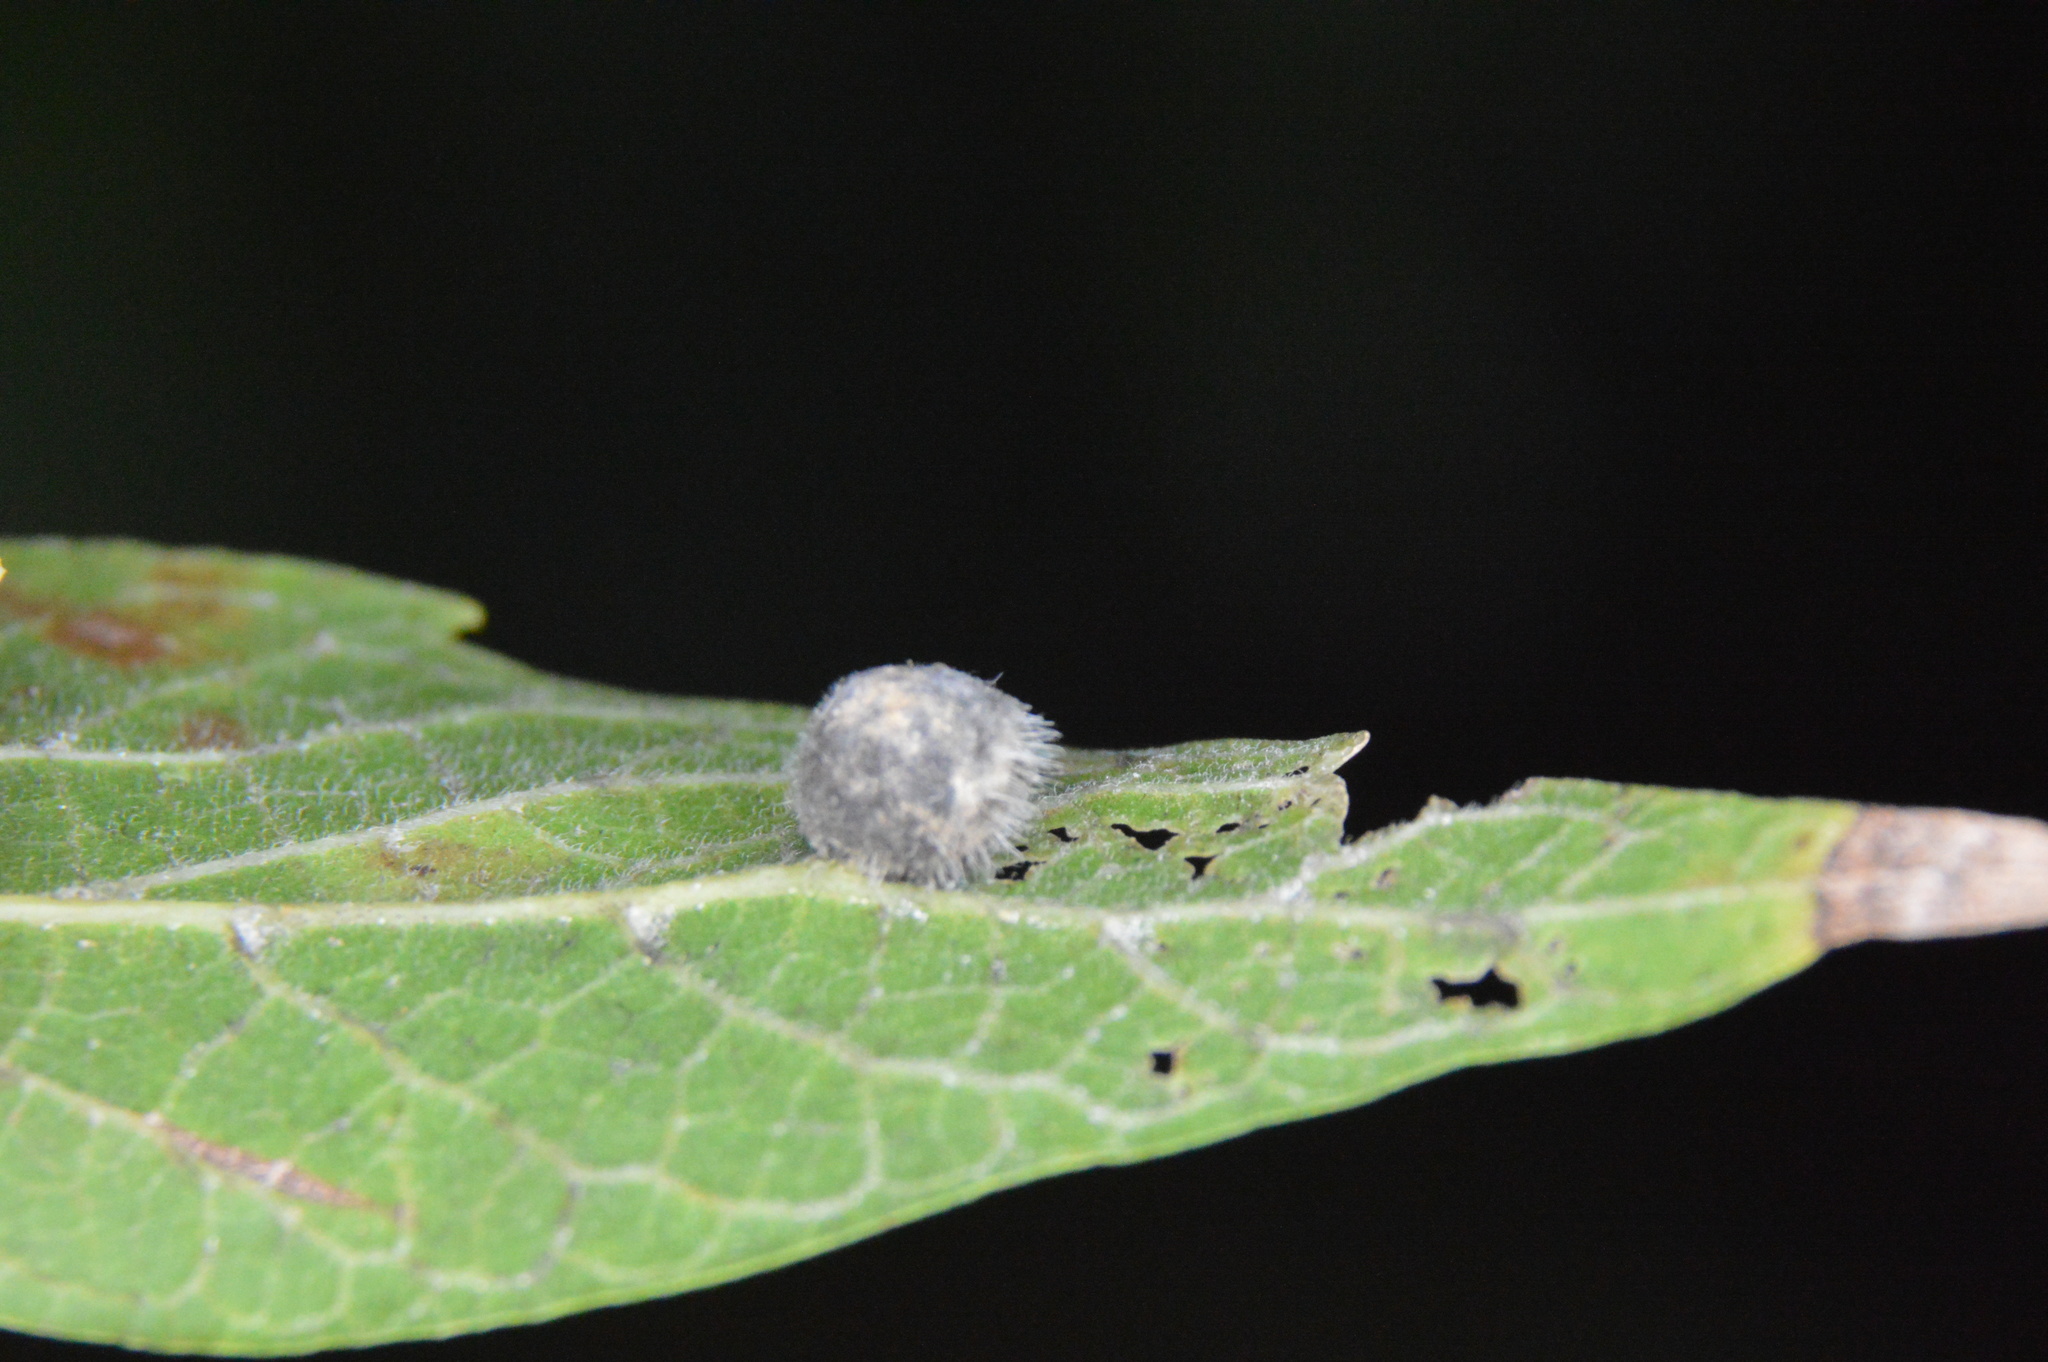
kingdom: Animalia
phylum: Arthropoda
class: Insecta
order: Diptera
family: Cecidomyiidae
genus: Celticecis
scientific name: Celticecis pubescens
